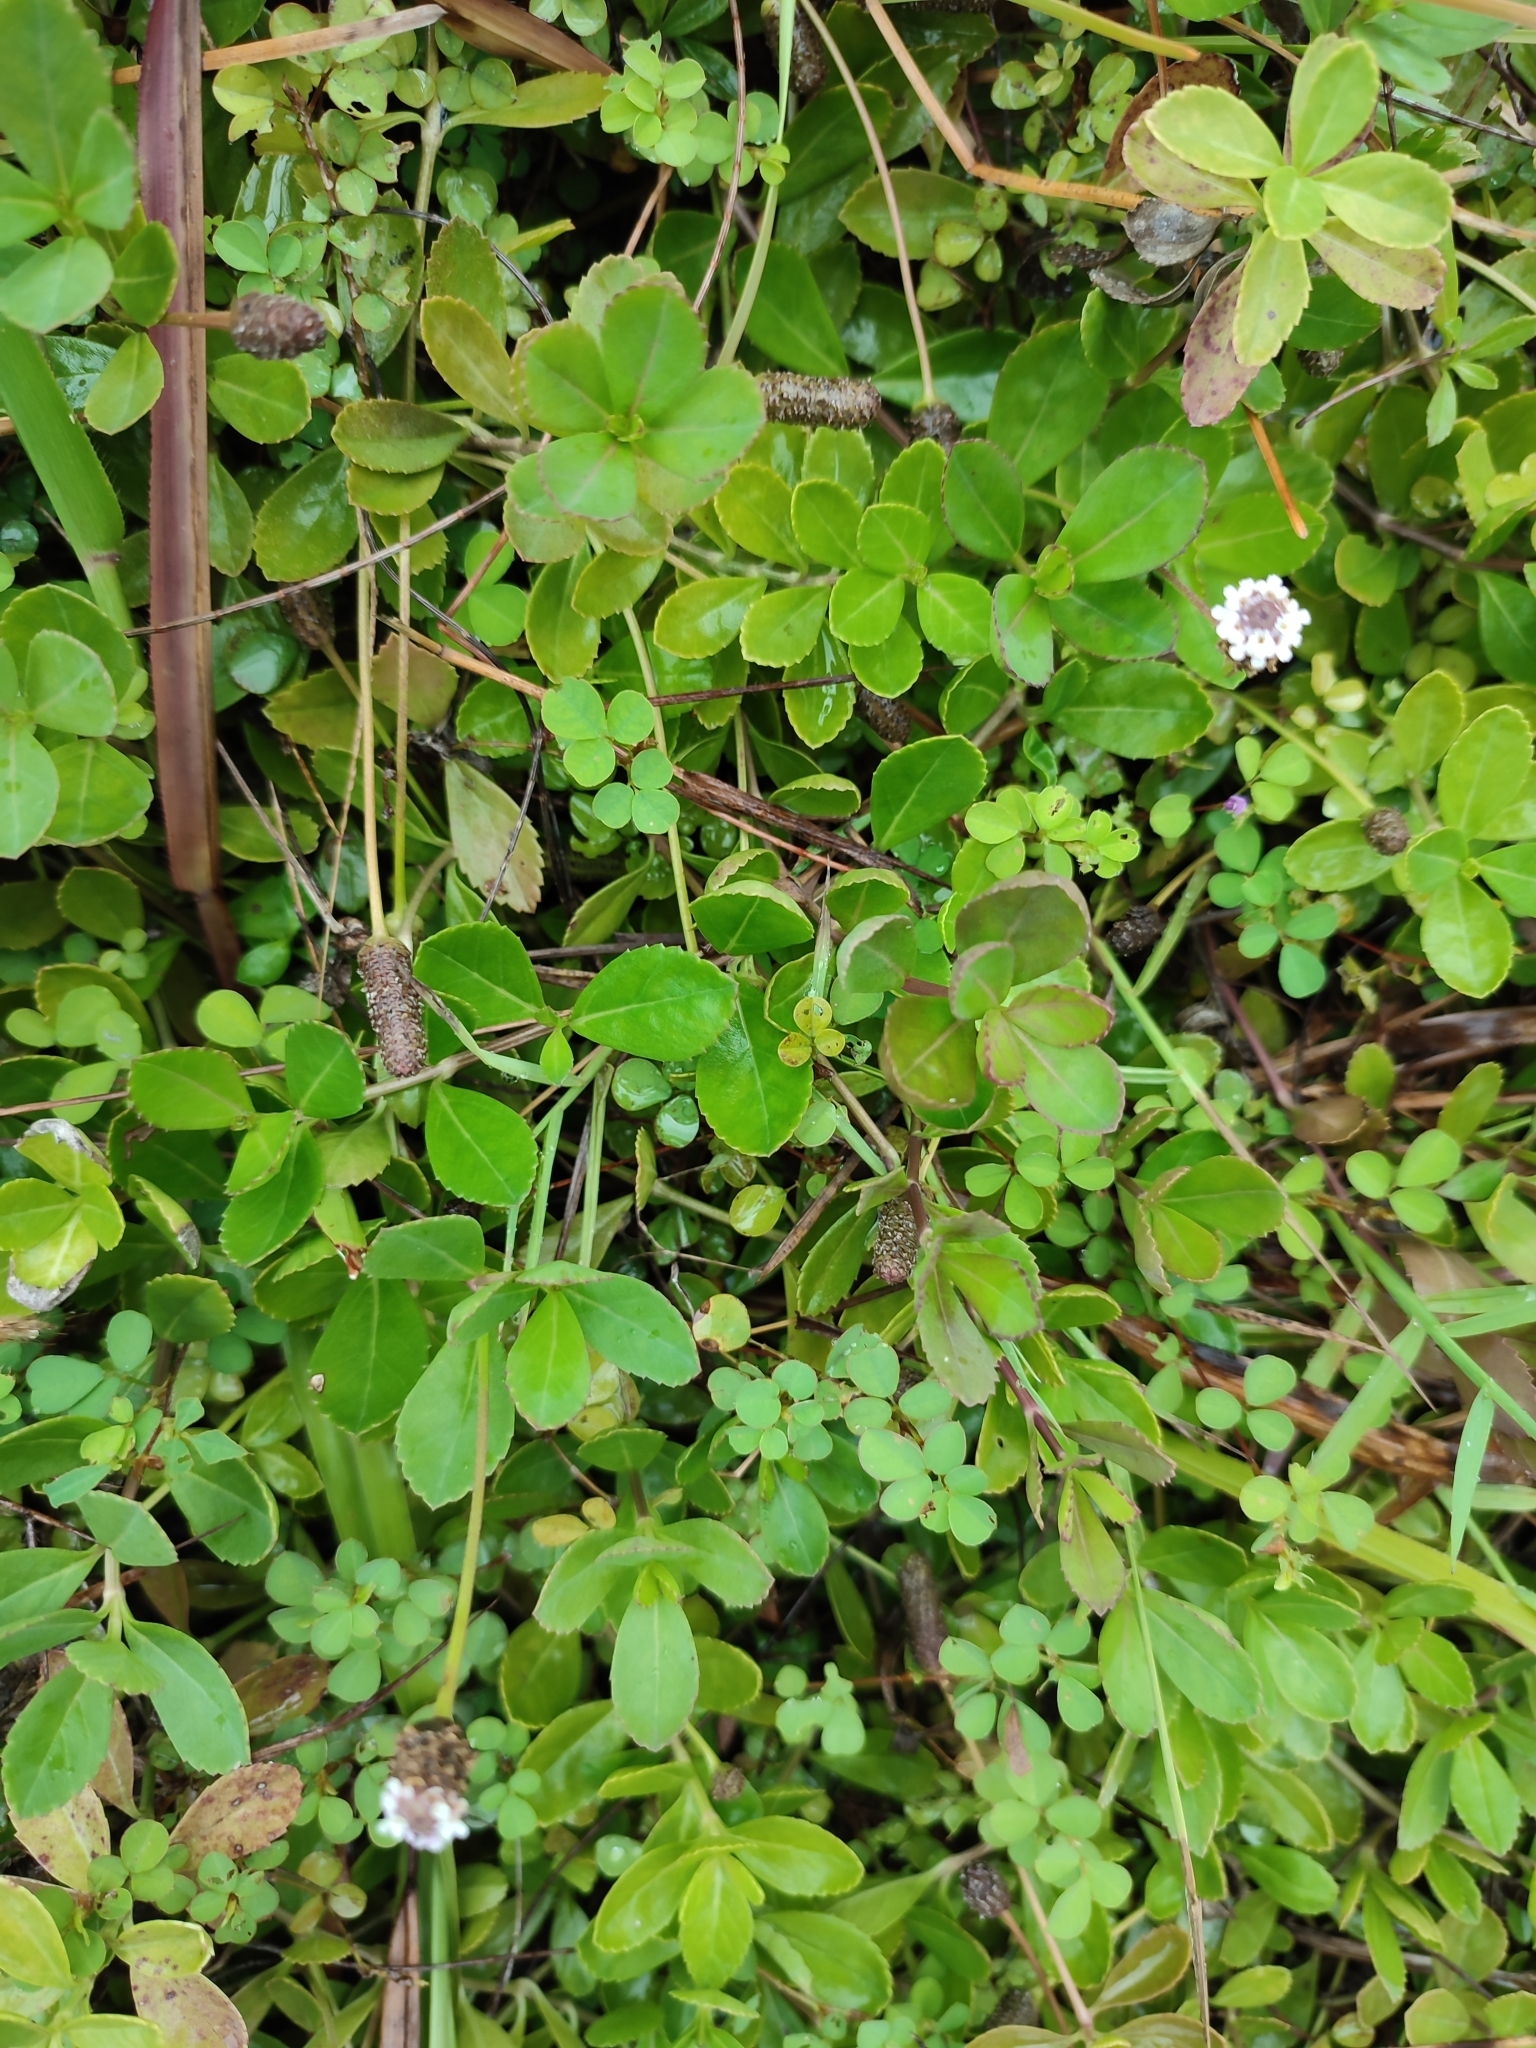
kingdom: Plantae
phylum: Tracheophyta
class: Magnoliopsida
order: Lamiales
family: Verbenaceae
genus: Phyla
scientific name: Phyla nodiflora
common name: Frogfruit
